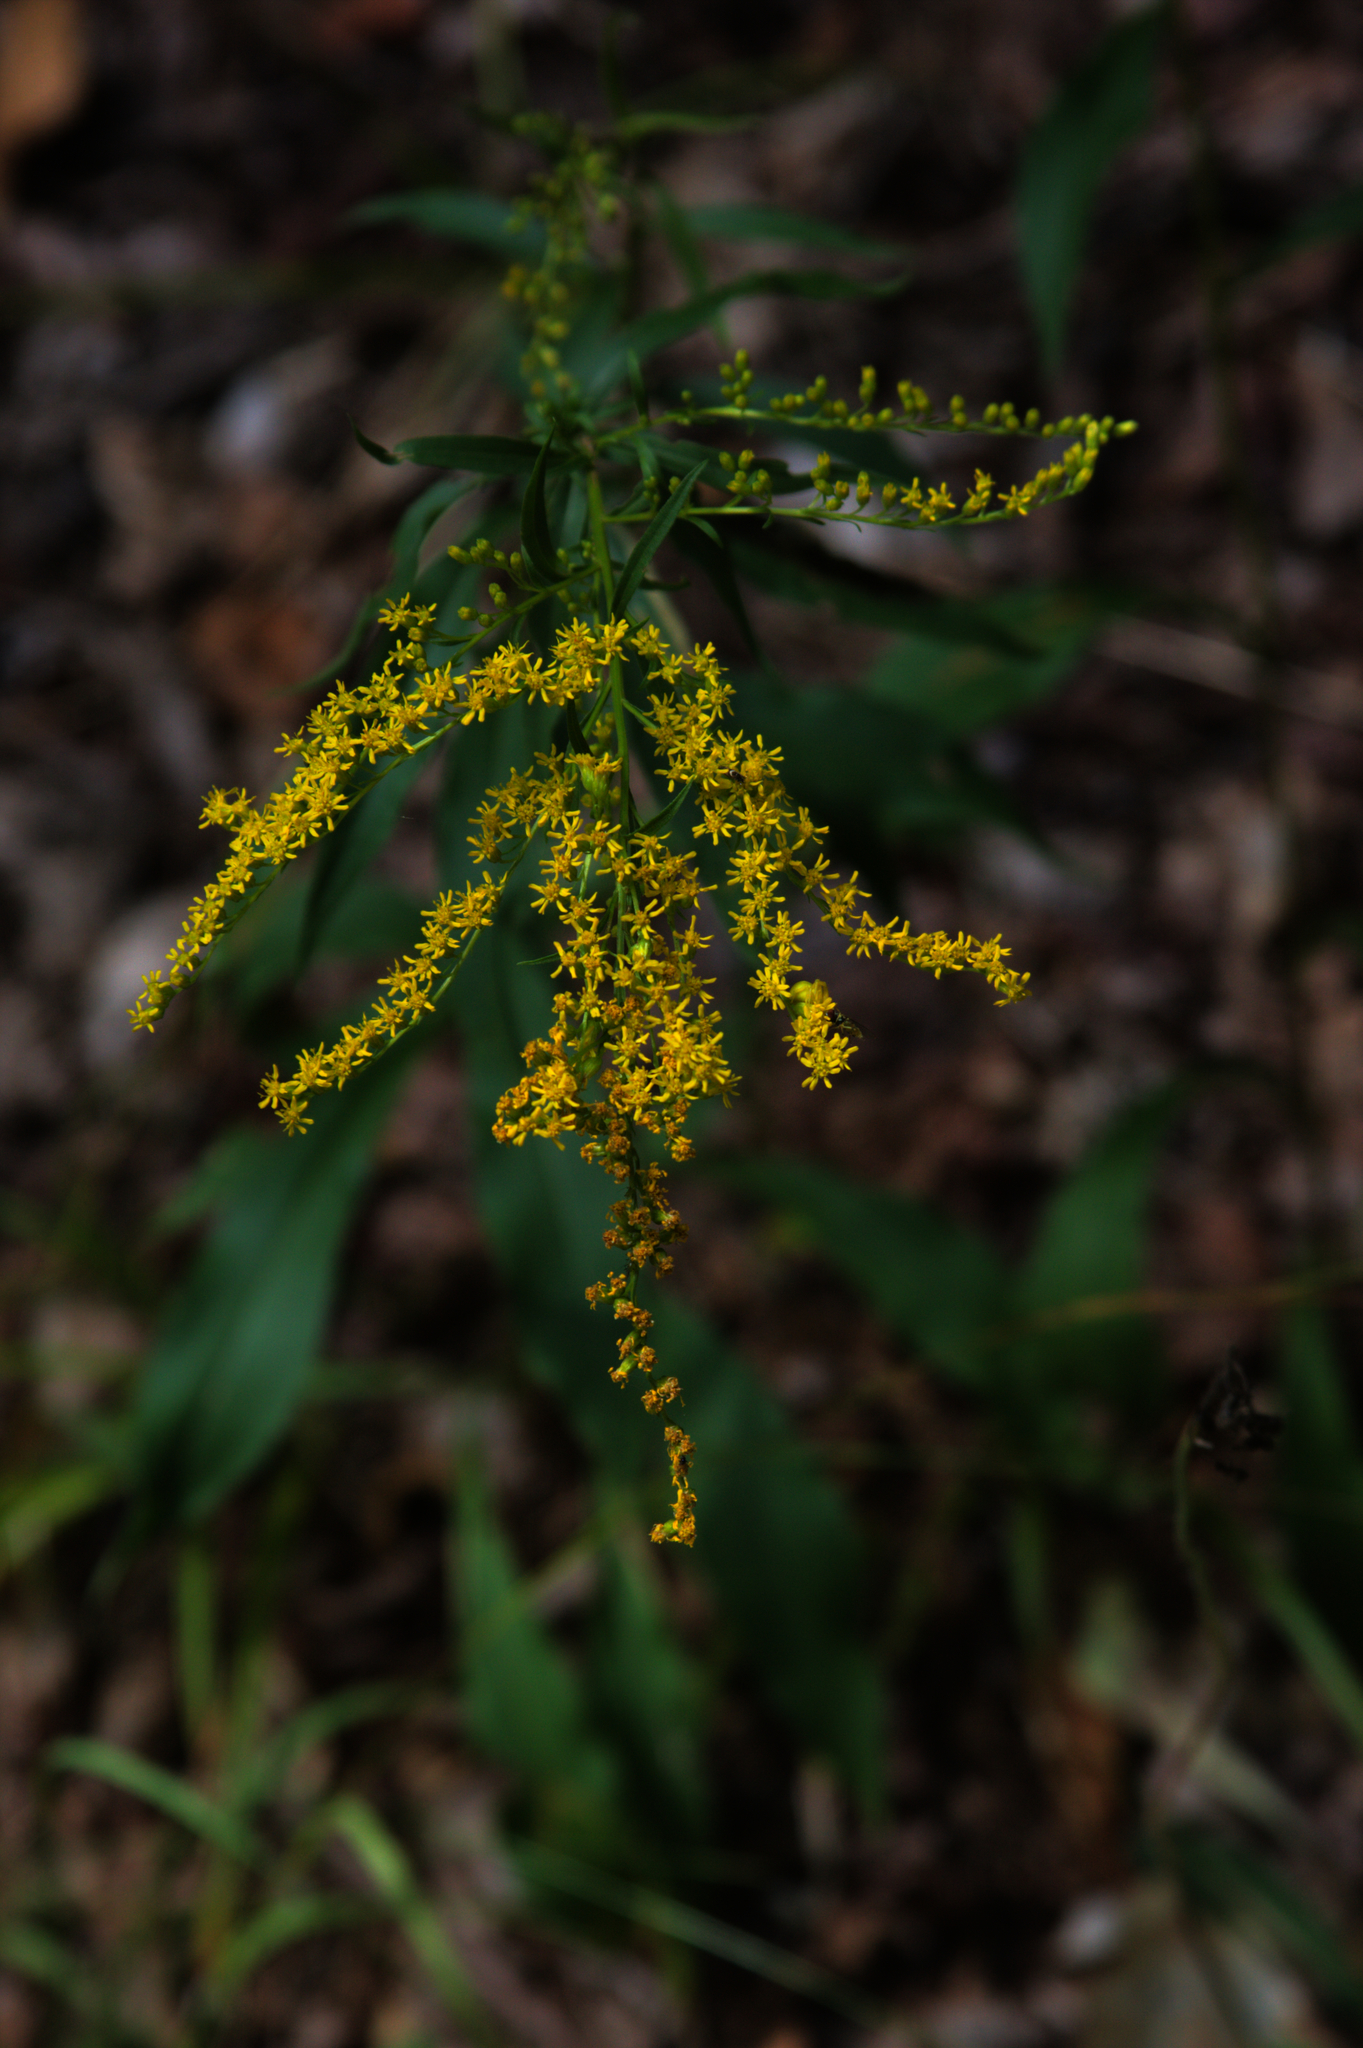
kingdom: Plantae
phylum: Tracheophyta
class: Magnoliopsida
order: Asterales
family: Asteraceae
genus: Solidago
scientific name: Solidago juncea
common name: Early goldenrod
